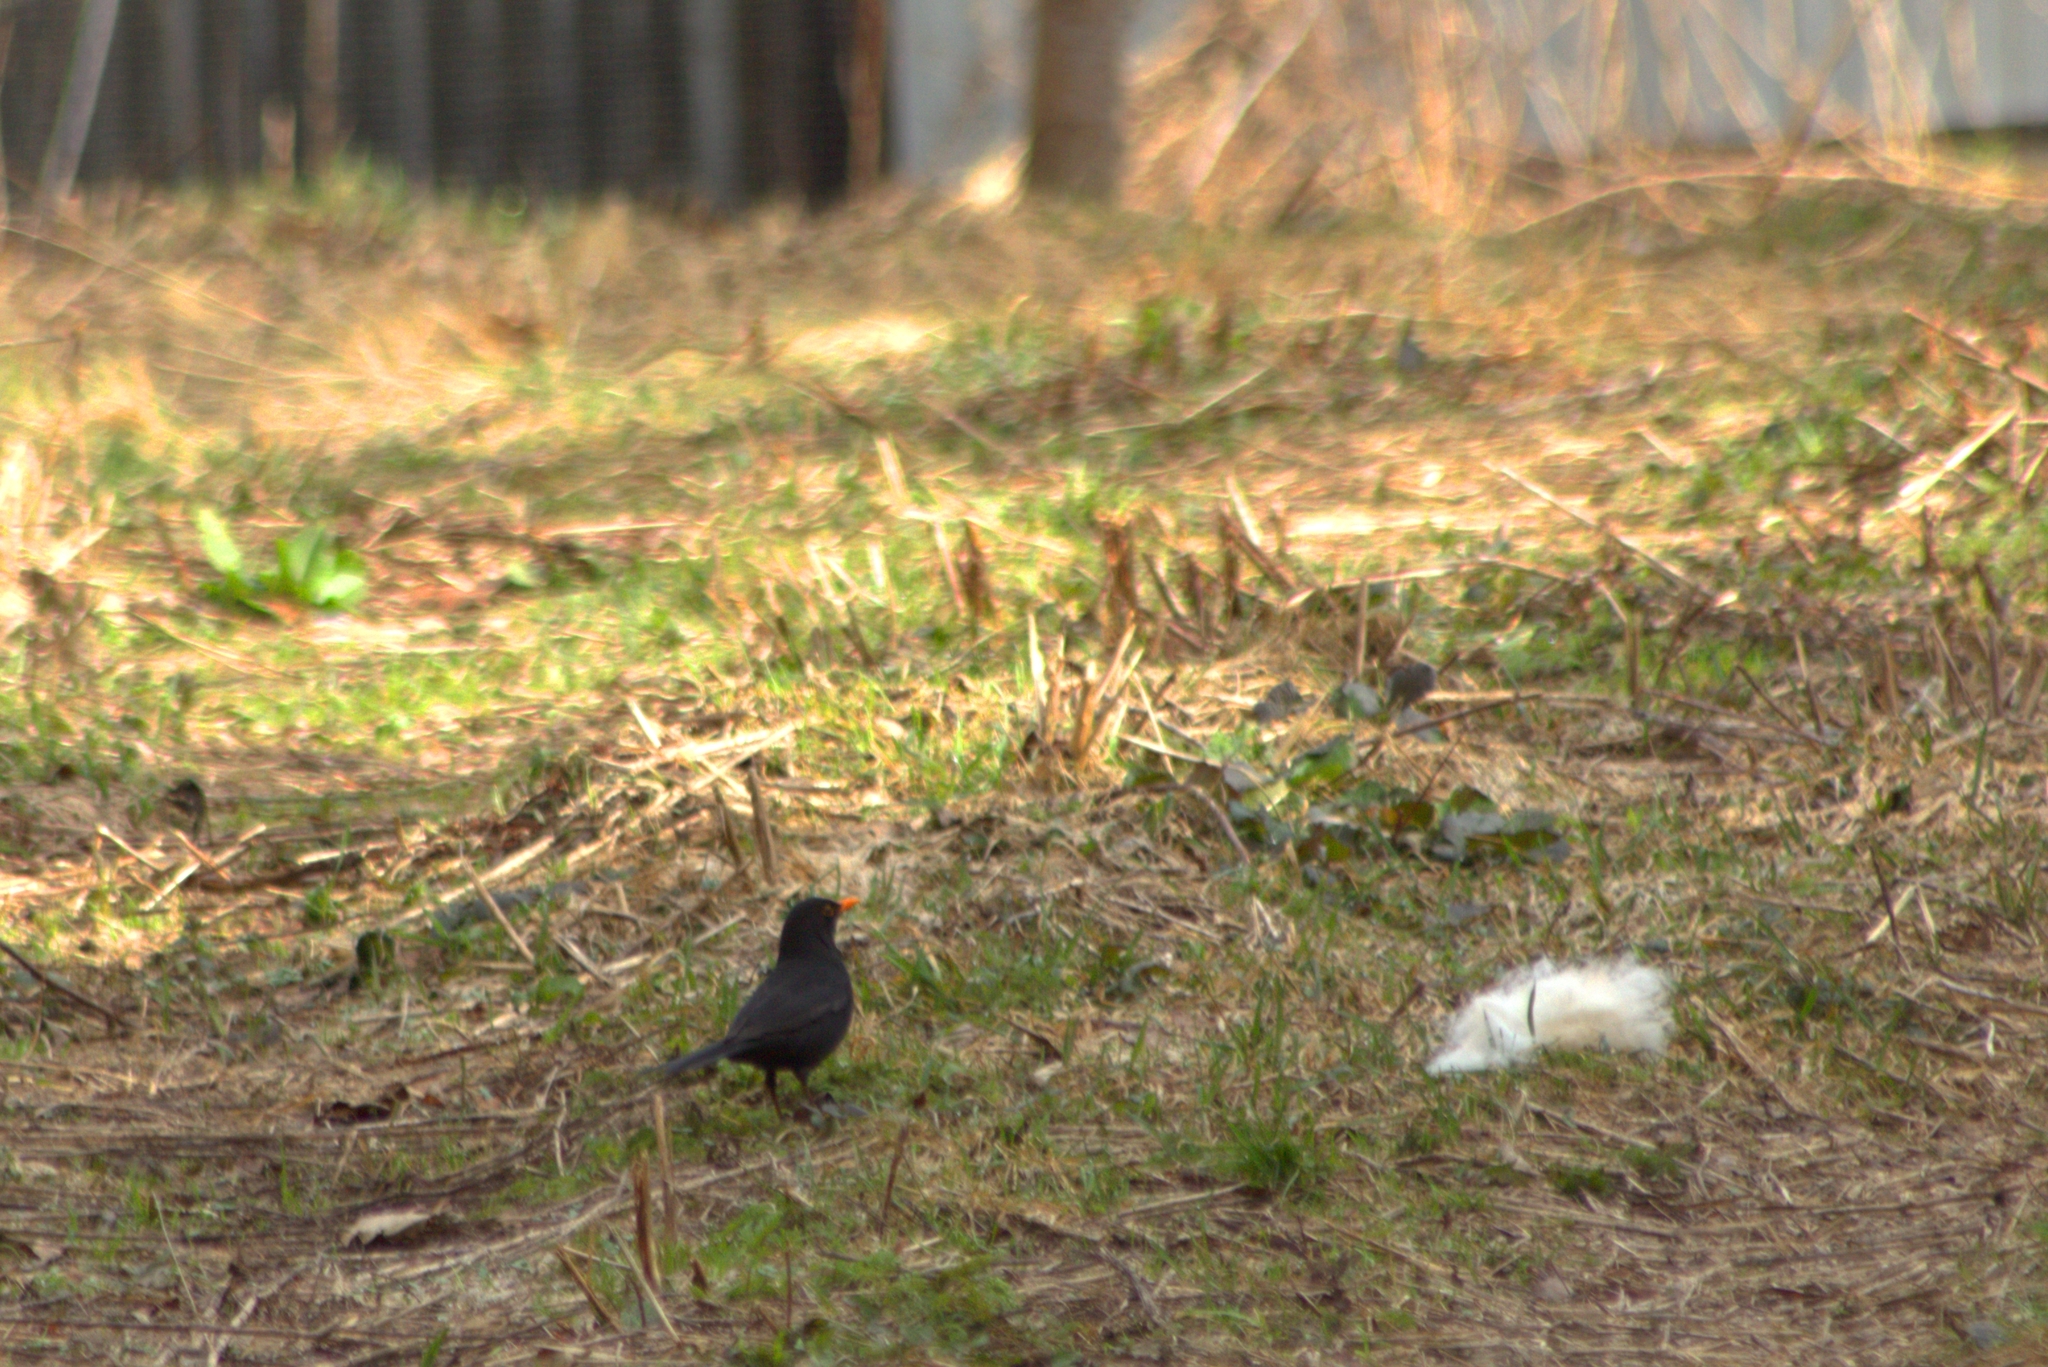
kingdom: Animalia
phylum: Chordata
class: Aves
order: Passeriformes
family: Turdidae
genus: Turdus
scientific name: Turdus merula
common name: Common blackbird
